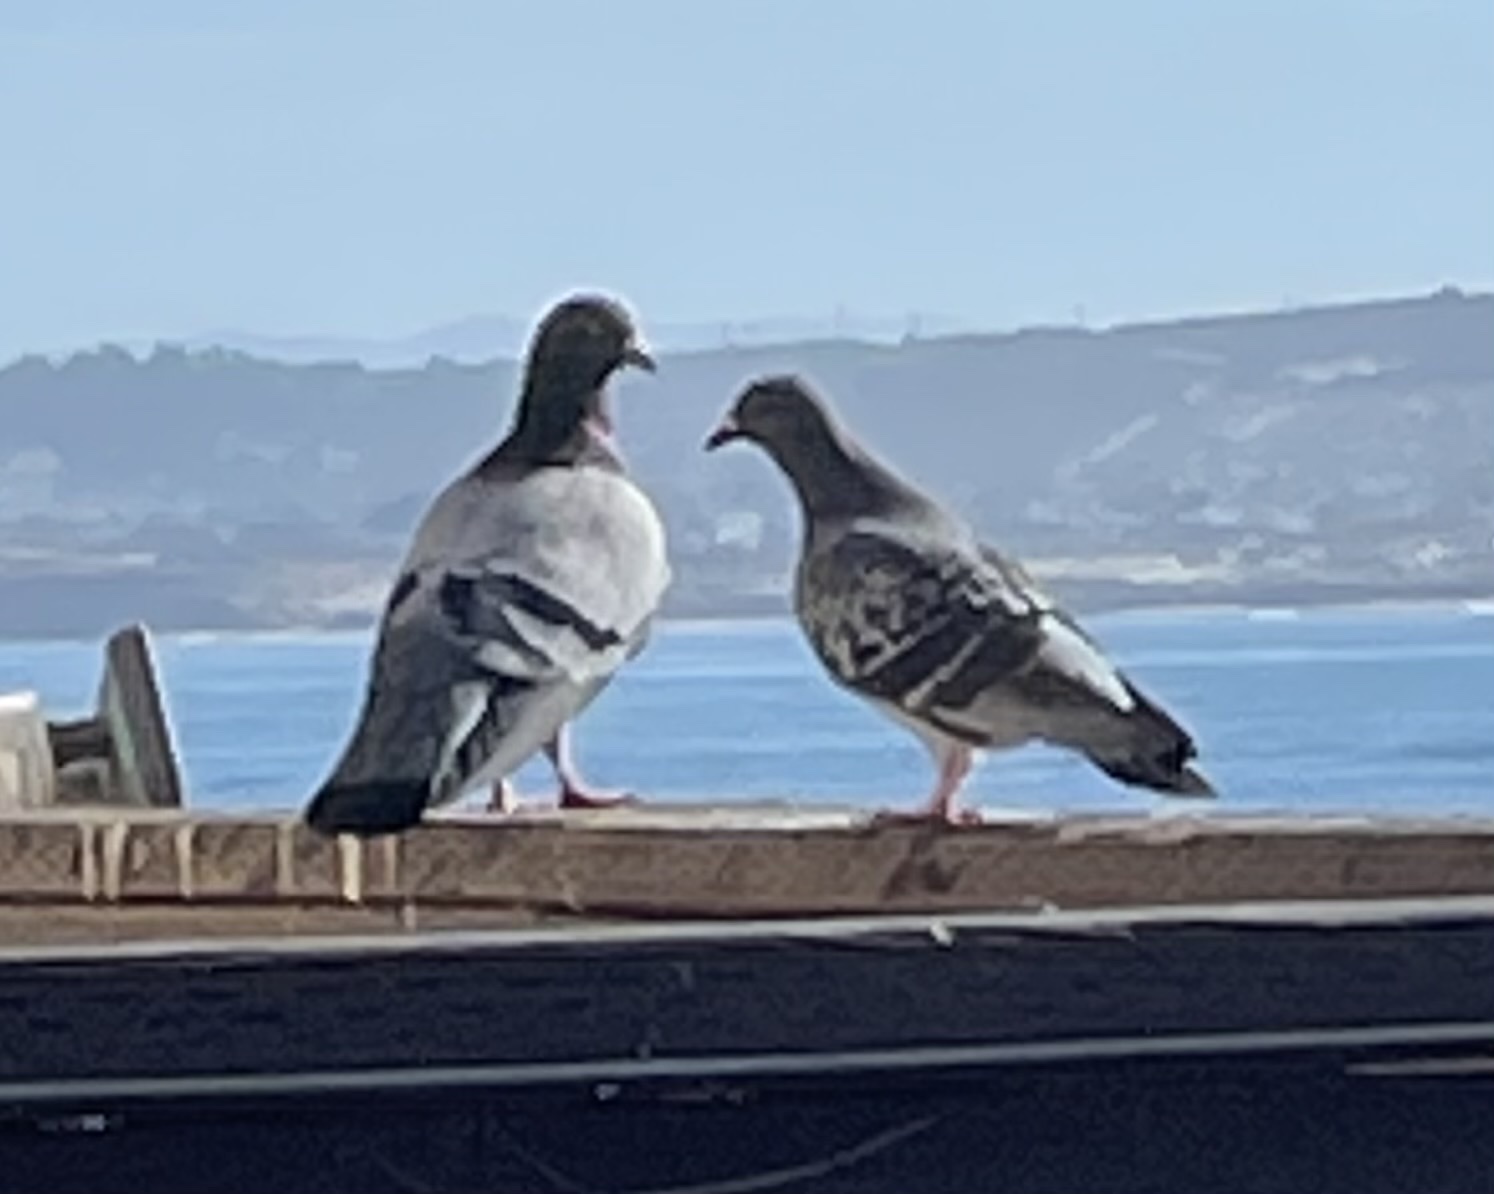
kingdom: Animalia
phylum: Chordata
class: Aves
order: Columbiformes
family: Columbidae
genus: Columba
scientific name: Columba livia
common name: Rock pigeon
